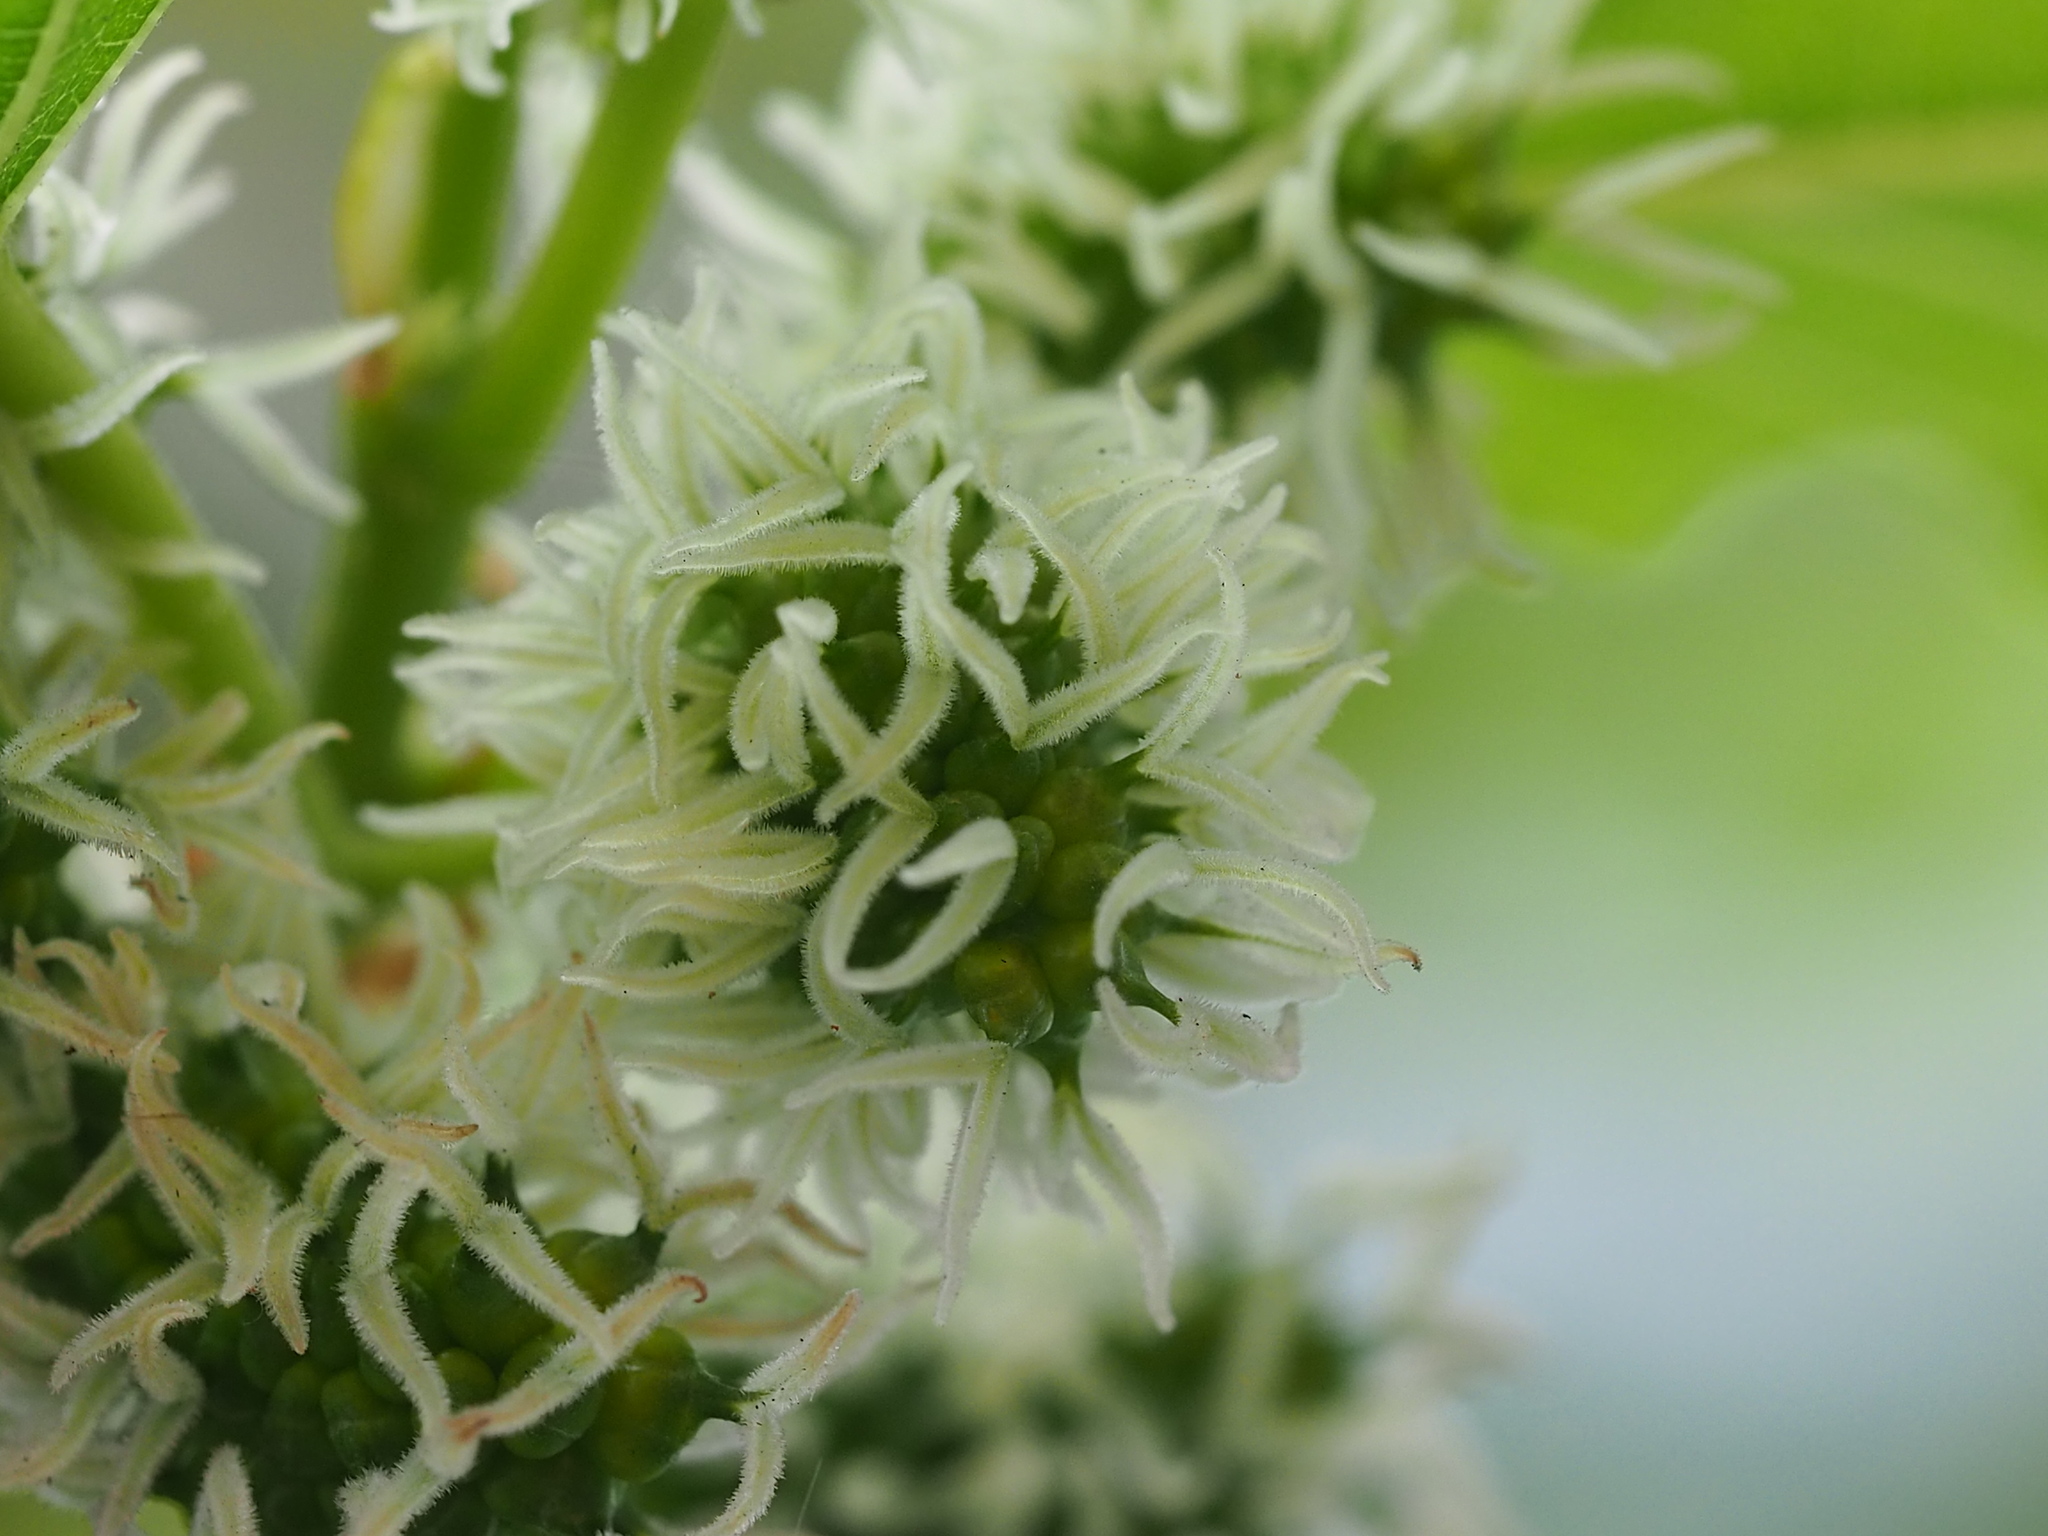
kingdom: Plantae
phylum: Tracheophyta
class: Magnoliopsida
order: Rosales
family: Moraceae
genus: Morus
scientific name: Morus indica
